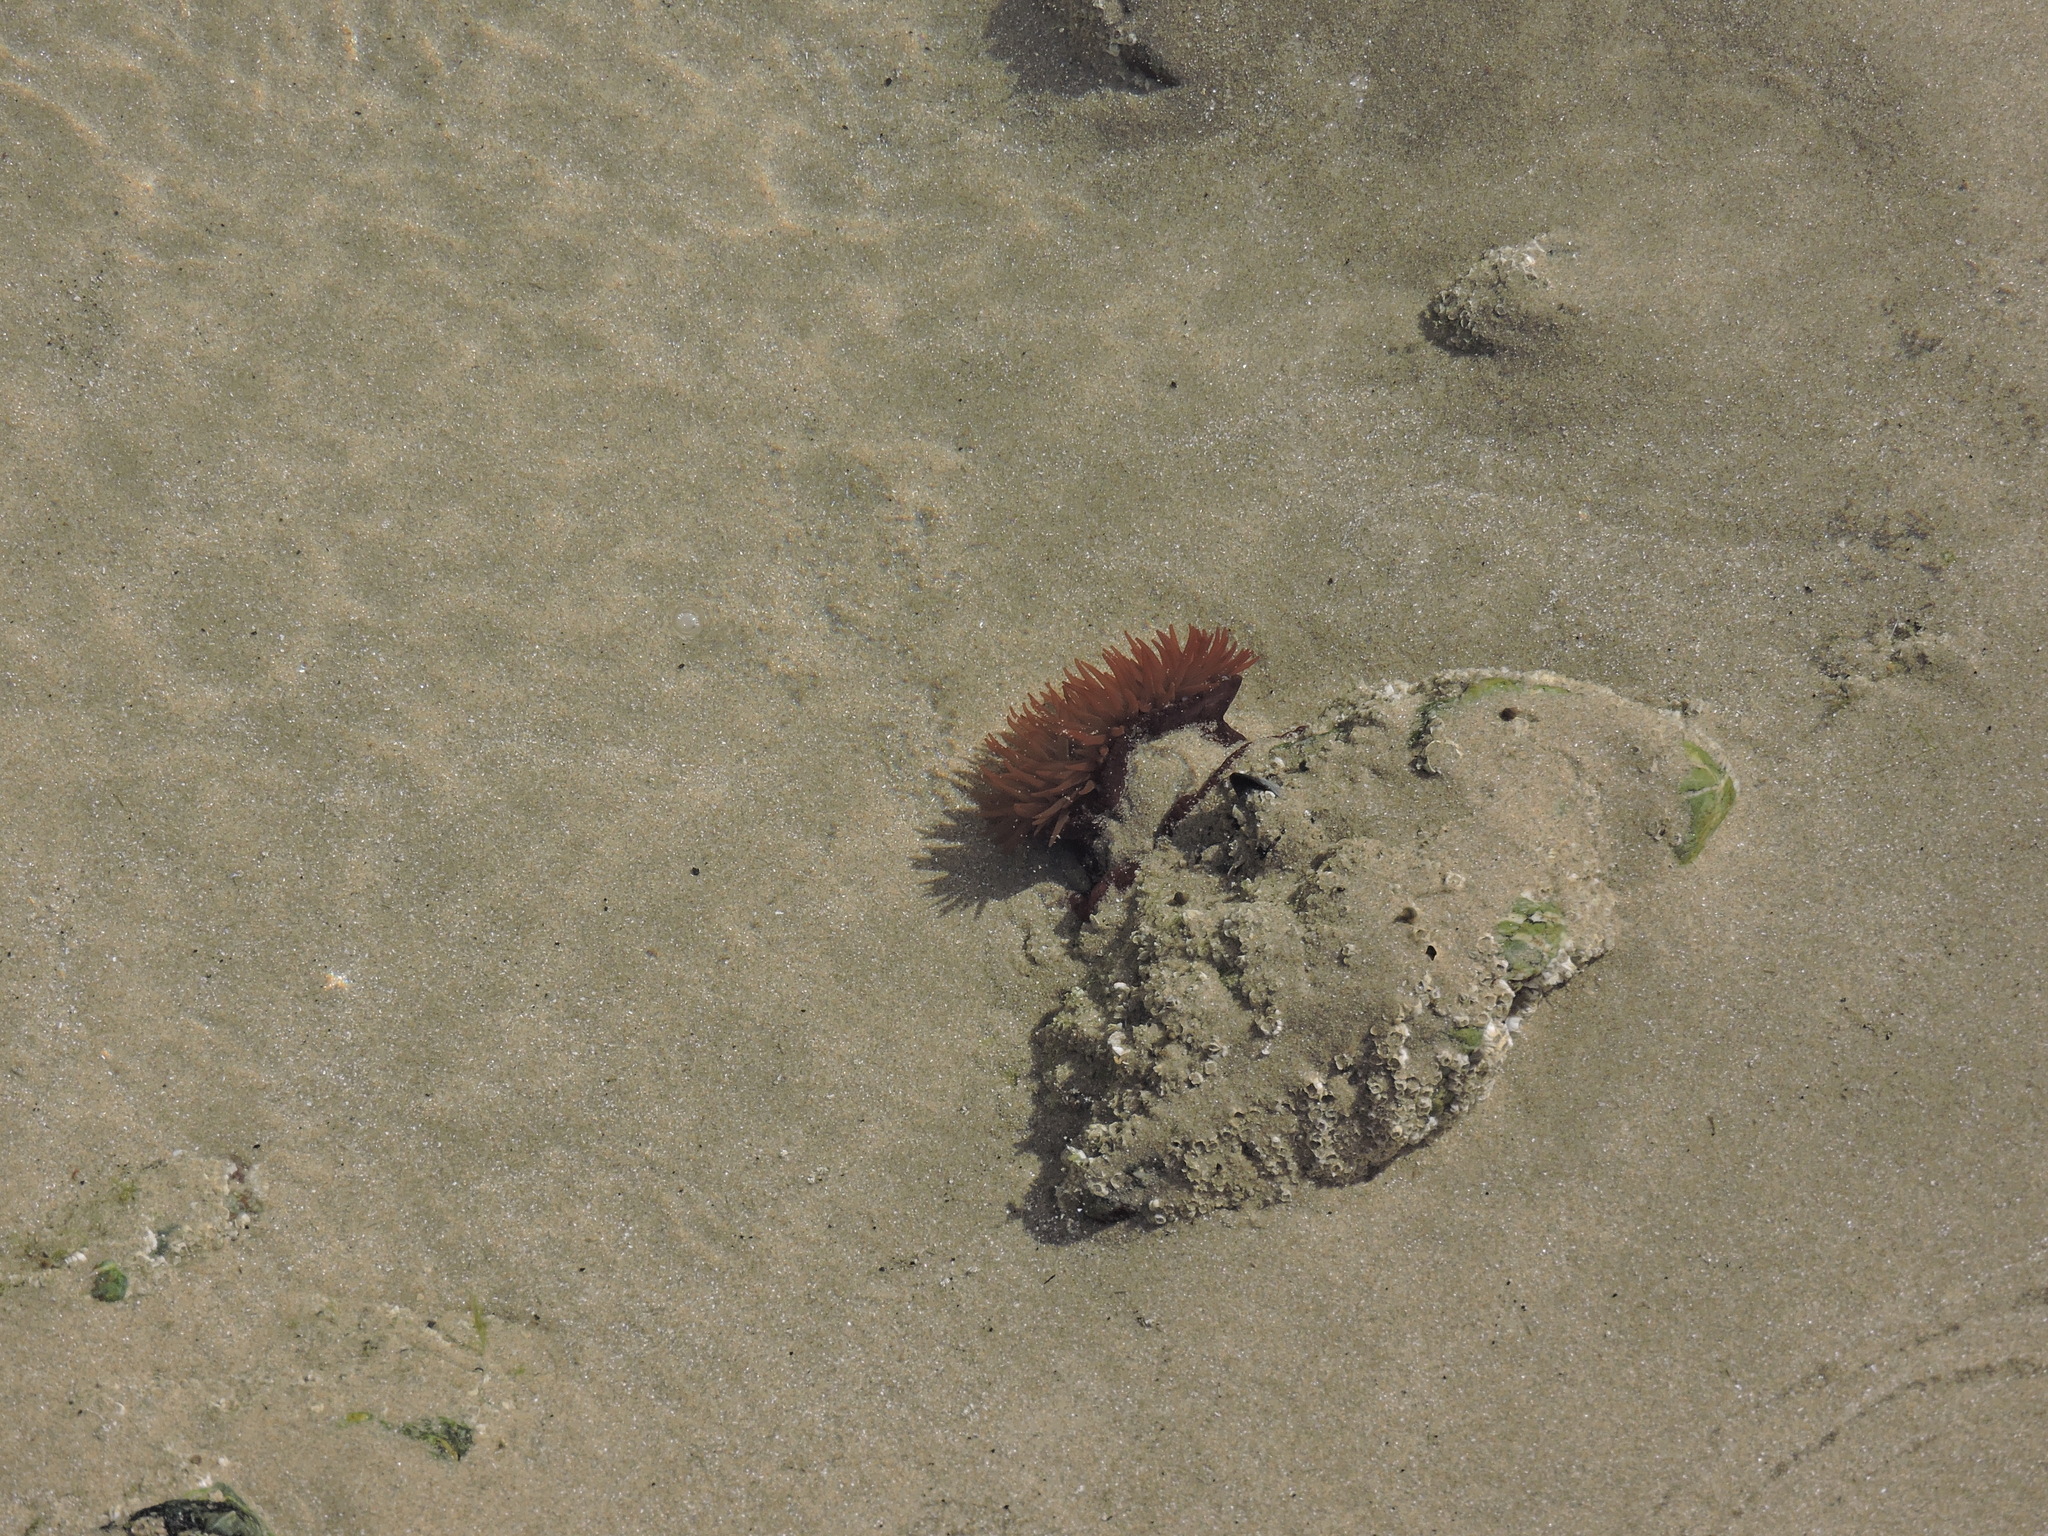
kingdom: Animalia
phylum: Cnidaria
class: Anthozoa
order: Actiniaria
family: Actiniidae
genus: Actinia
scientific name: Actinia equina
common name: Beadlet anemone
